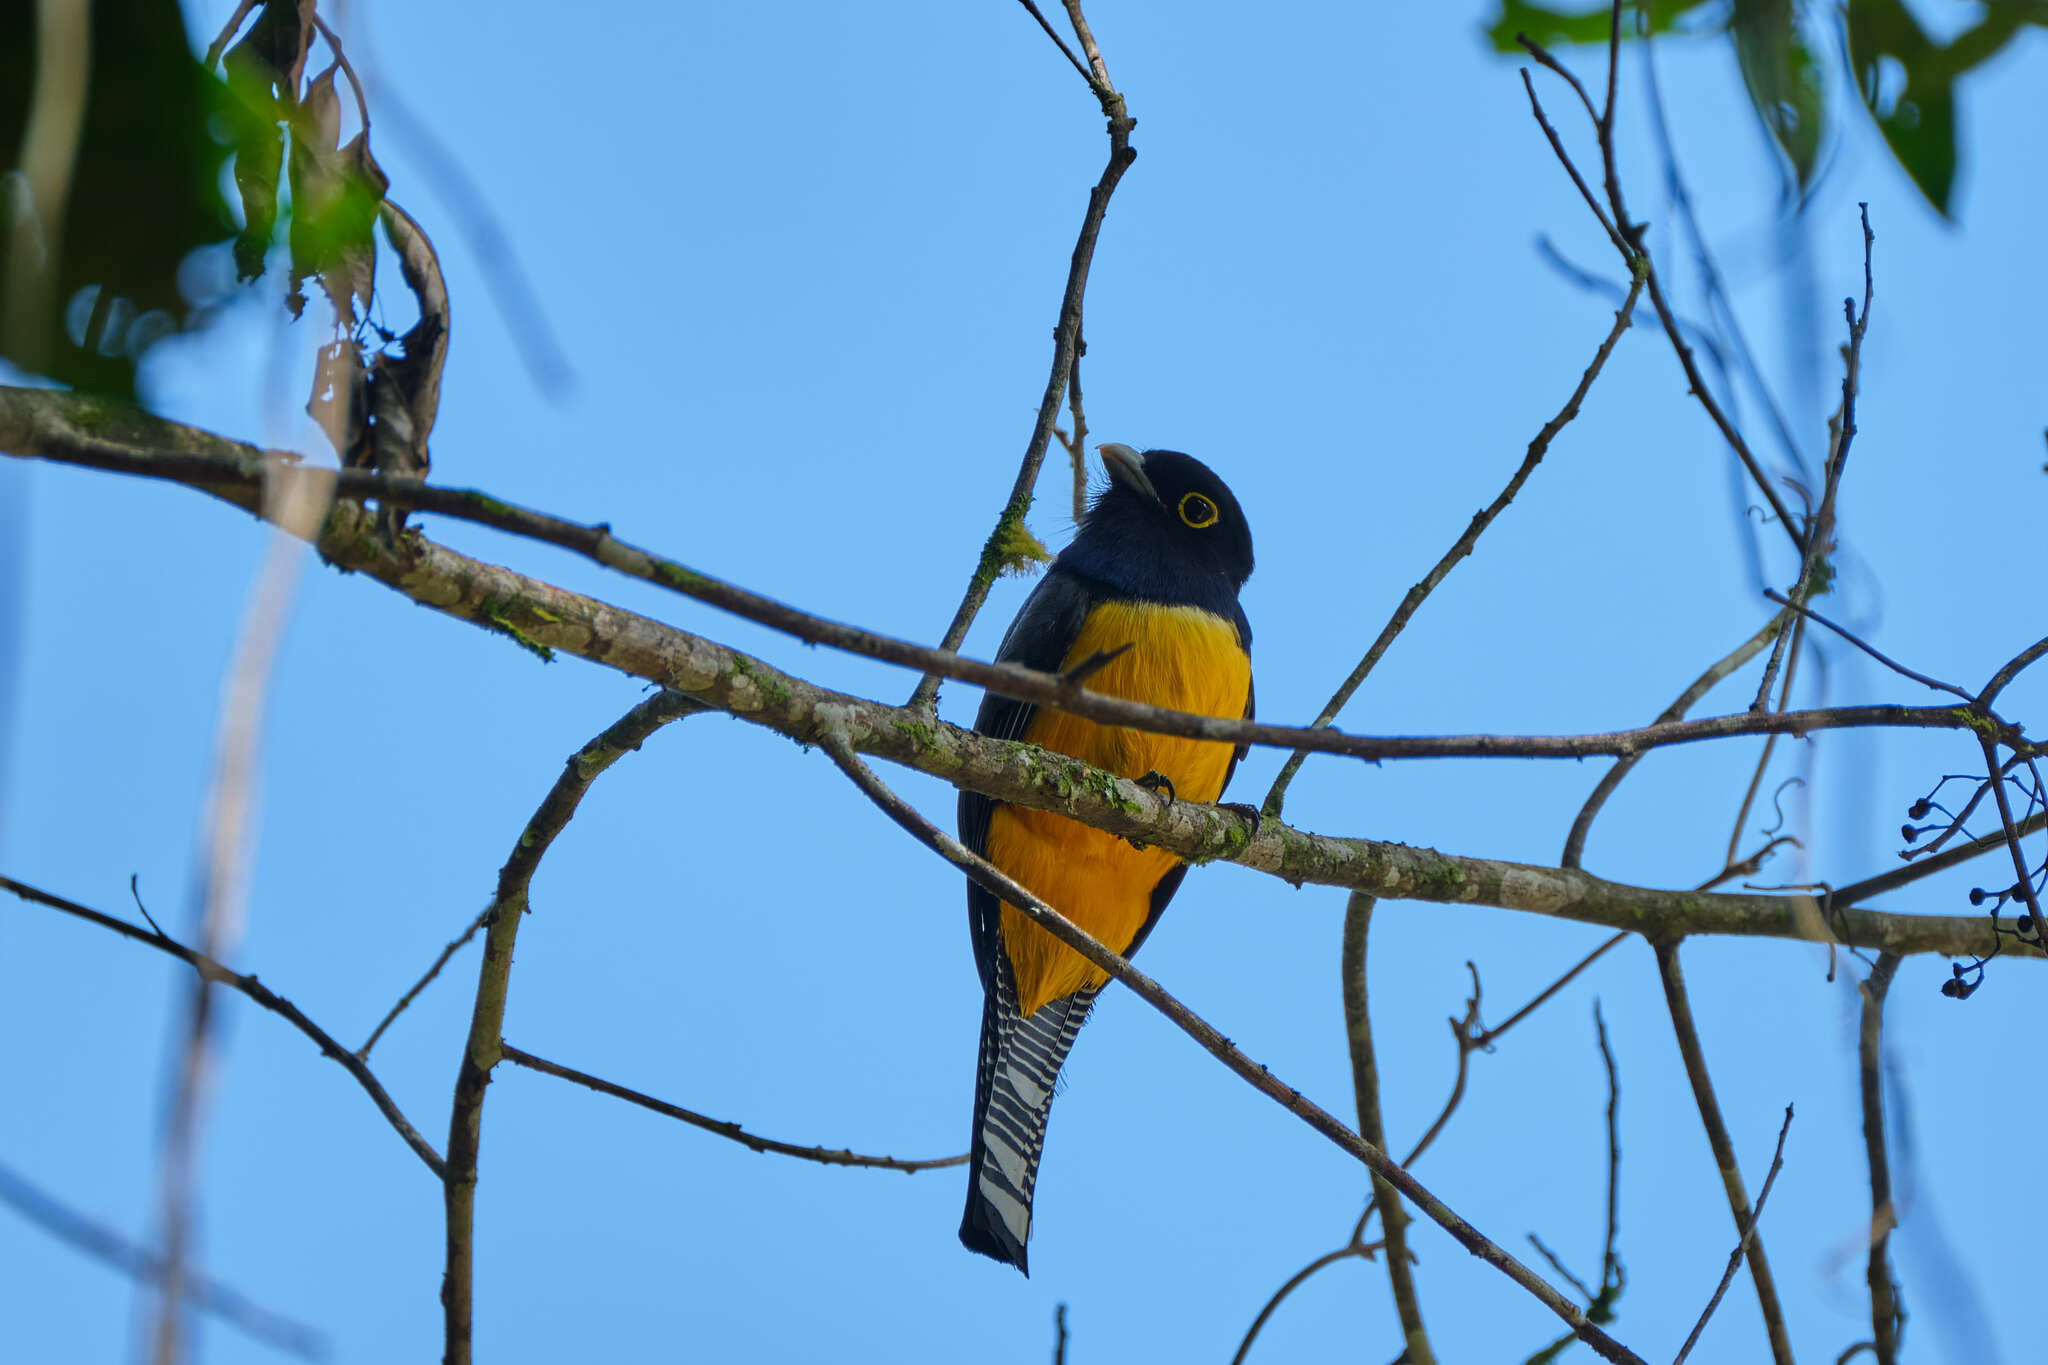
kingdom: Animalia
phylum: Chordata
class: Aves
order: Trogoniformes
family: Trogonidae
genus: Trogon
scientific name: Trogon caligatus
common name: Gartered trogon
